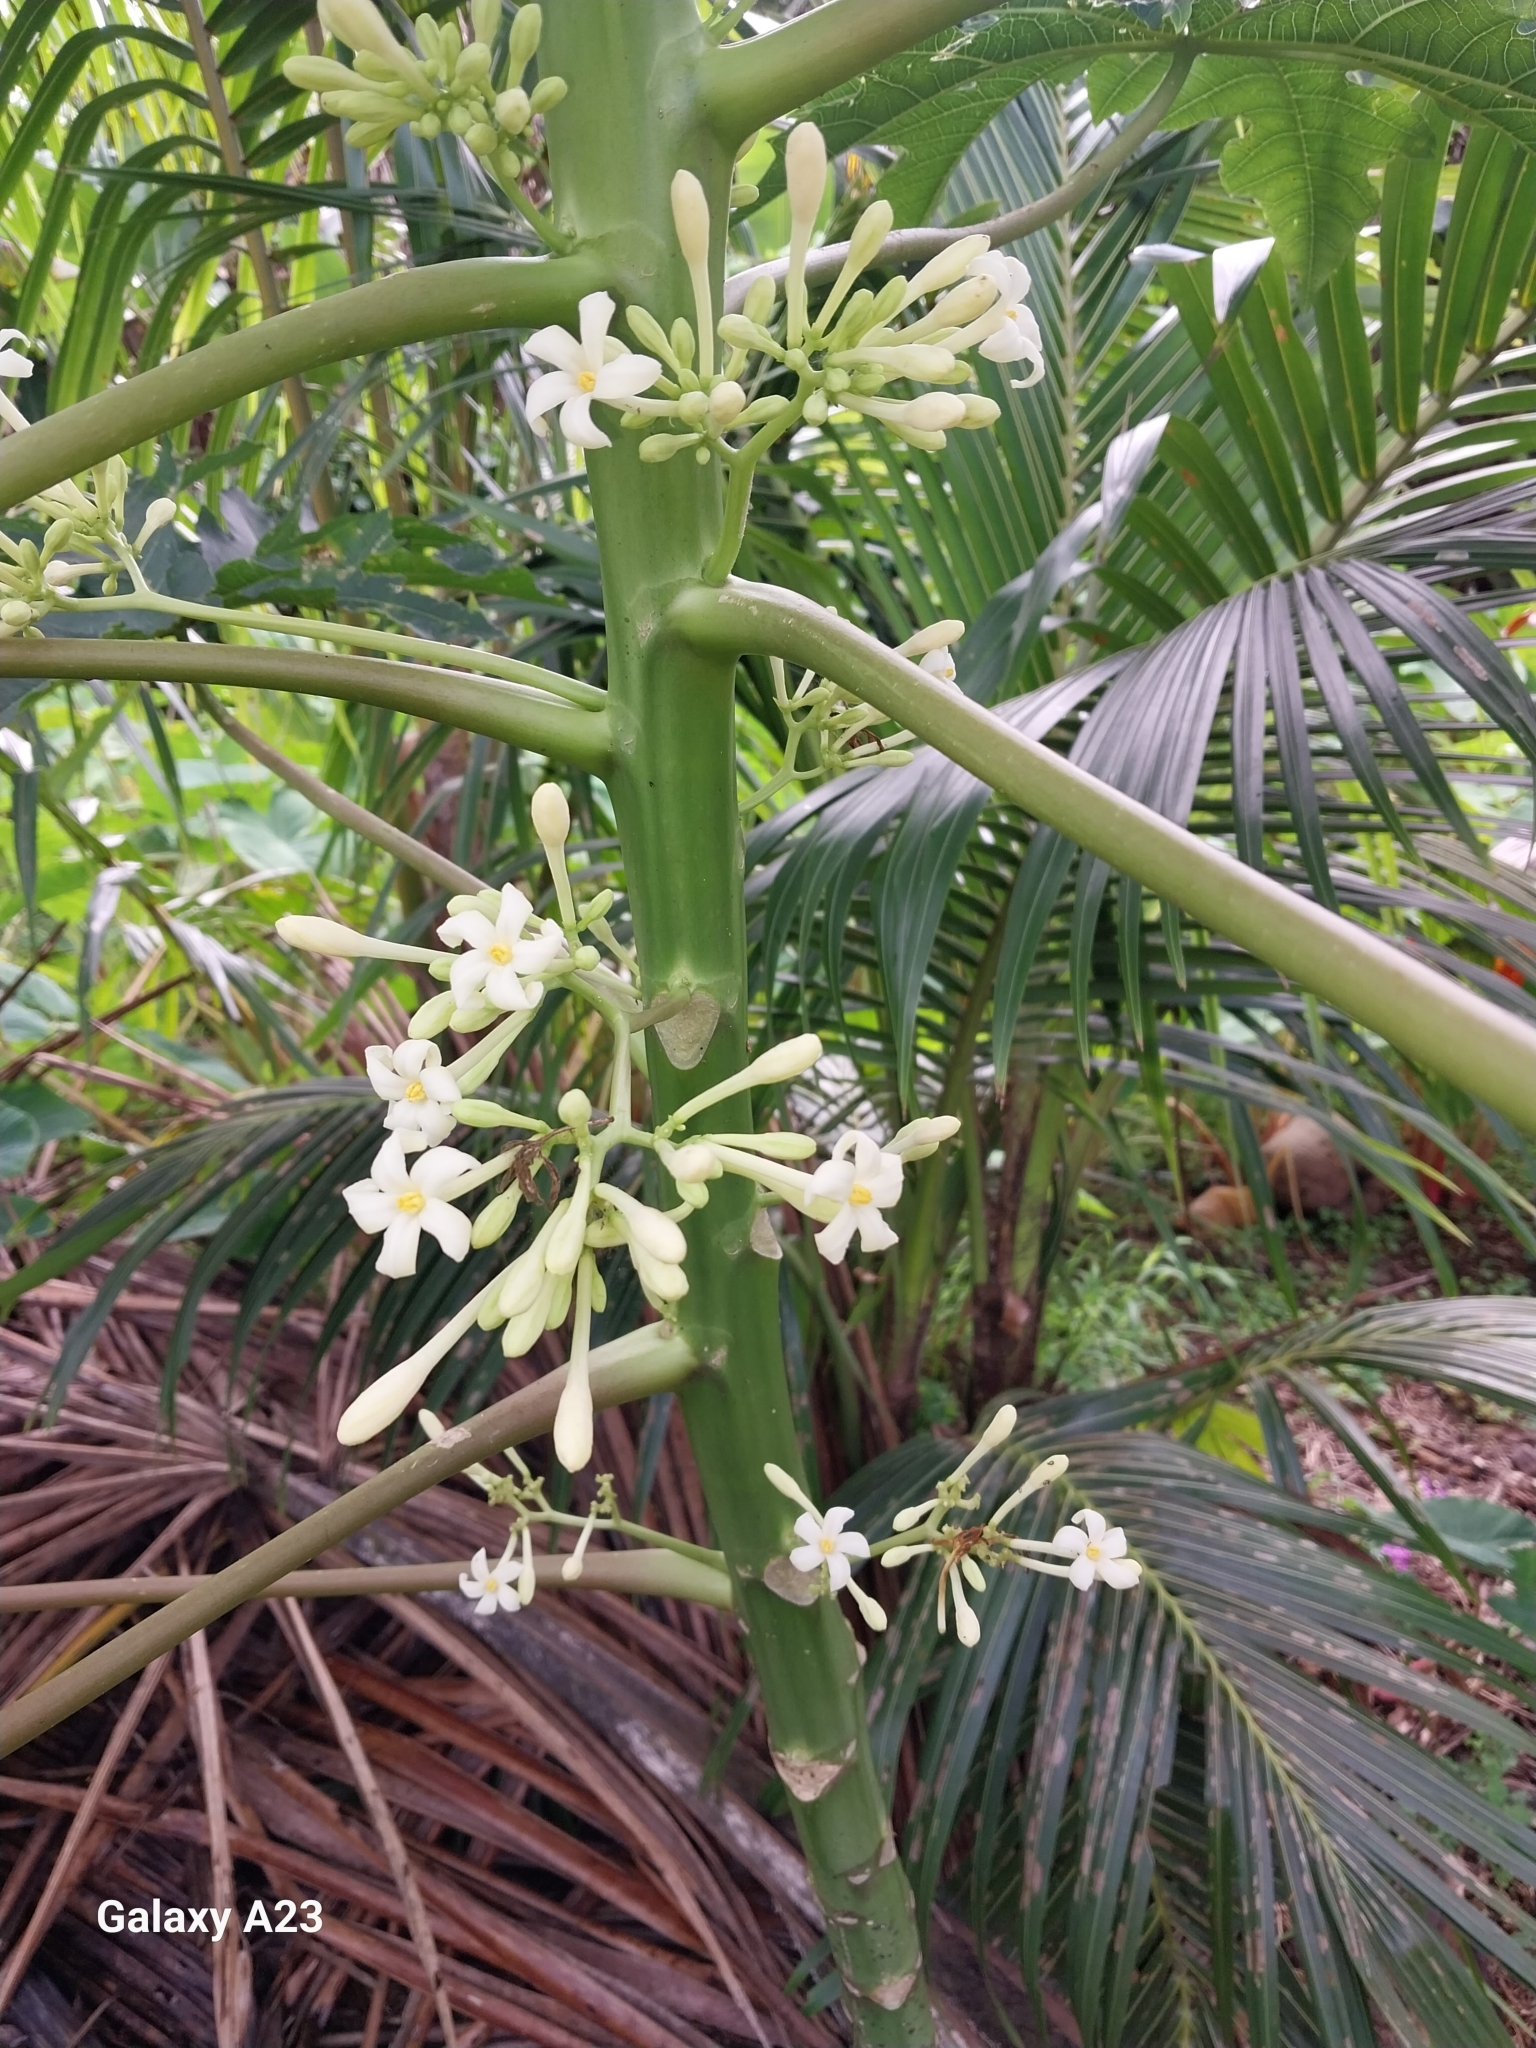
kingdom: Plantae
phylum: Tracheophyta
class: Magnoliopsida
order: Brassicales
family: Caricaceae
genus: Carica
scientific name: Carica papaya
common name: Papaya
